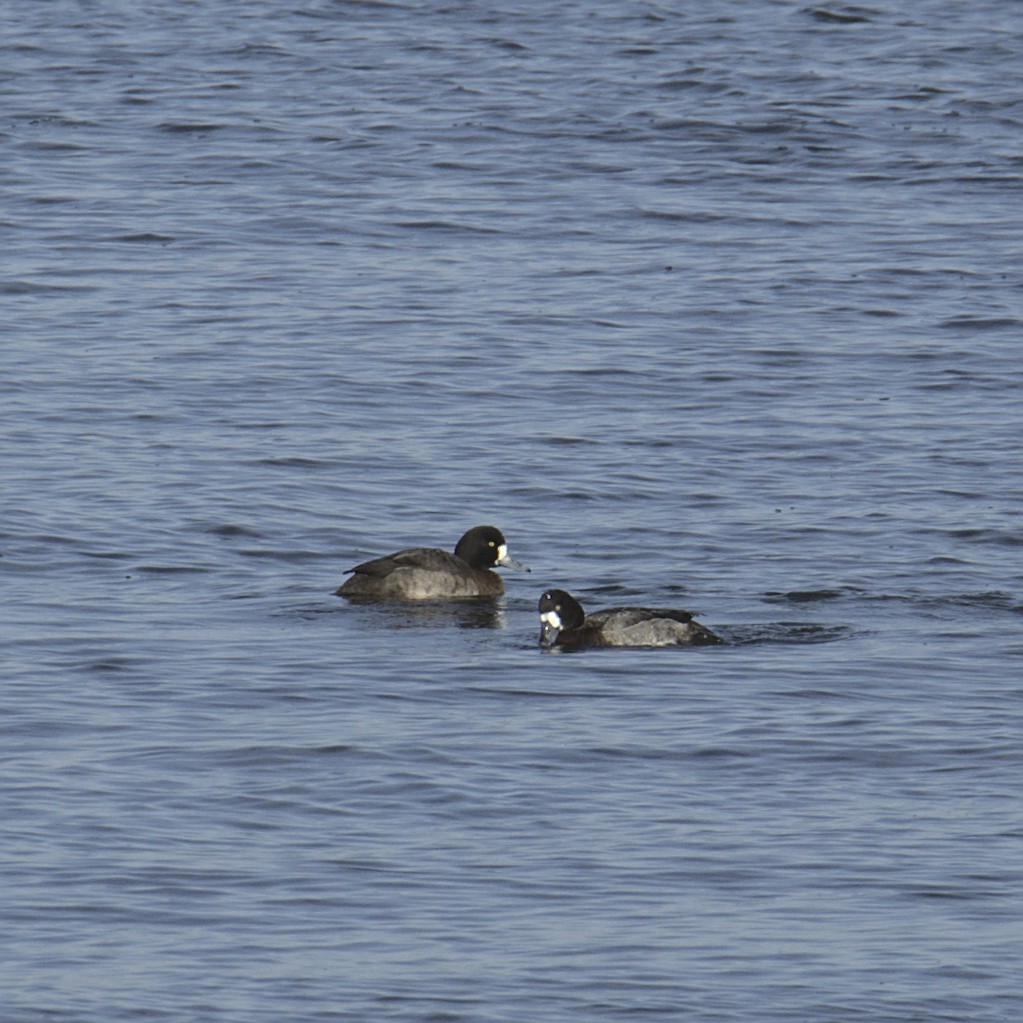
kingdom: Animalia
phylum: Chordata
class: Aves
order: Anseriformes
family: Anatidae
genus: Aythya
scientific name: Aythya marila
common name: Greater scaup
